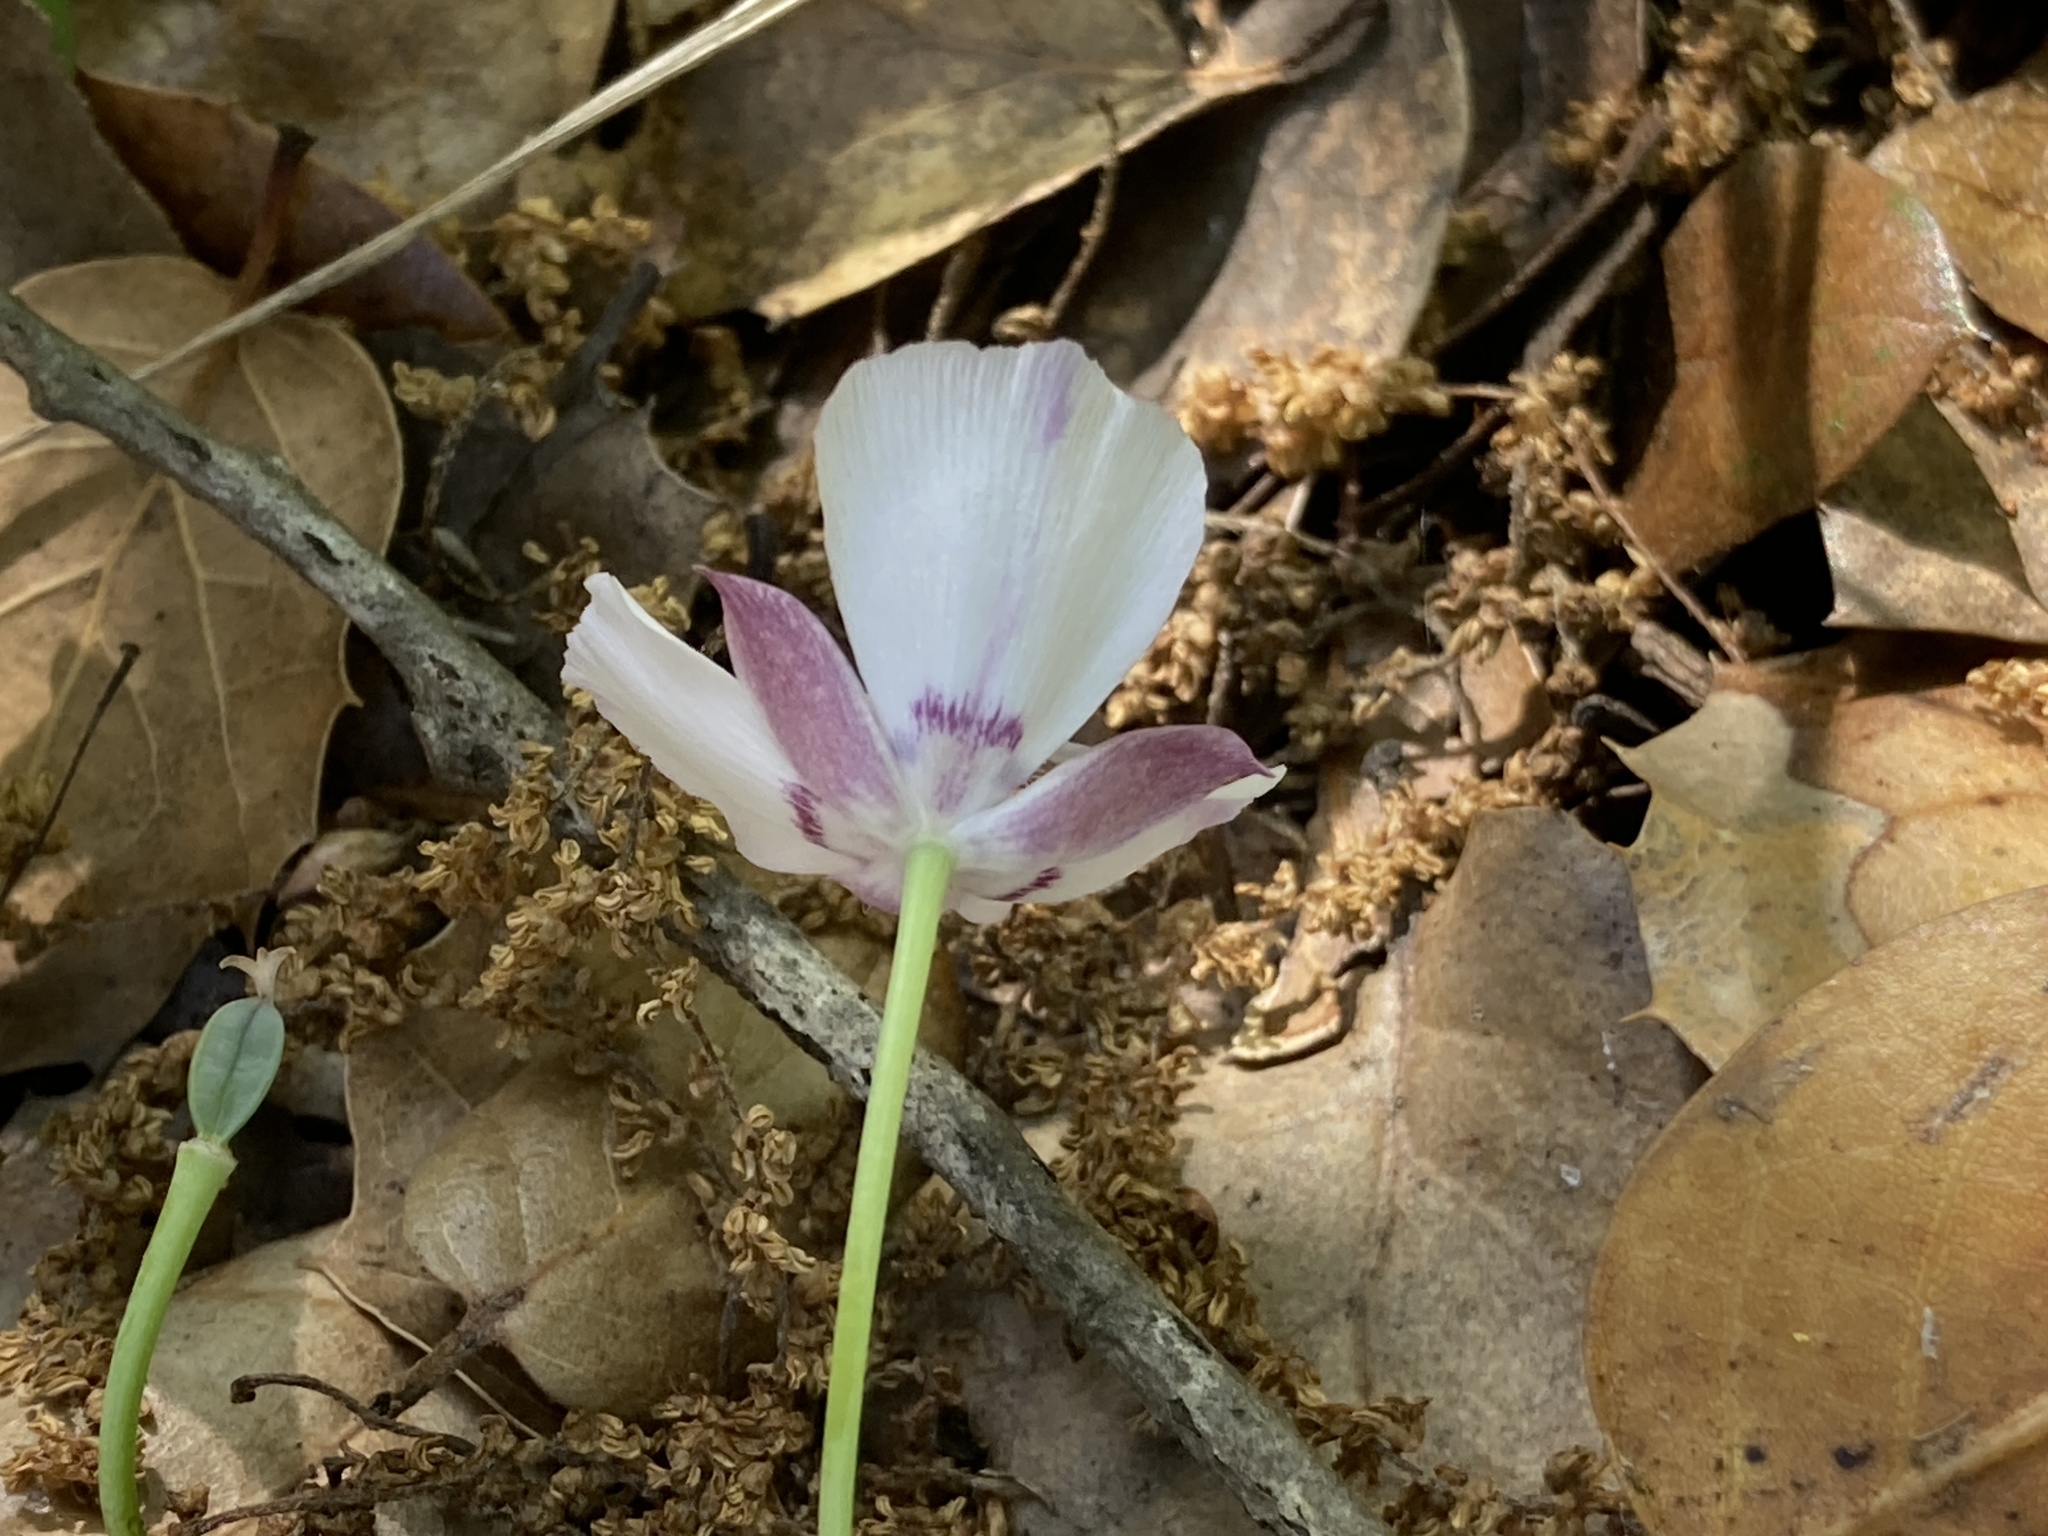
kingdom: Plantae
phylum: Tracheophyta
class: Liliopsida
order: Liliales
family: Liliaceae
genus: Calochortus
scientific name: Calochortus umbellatus
